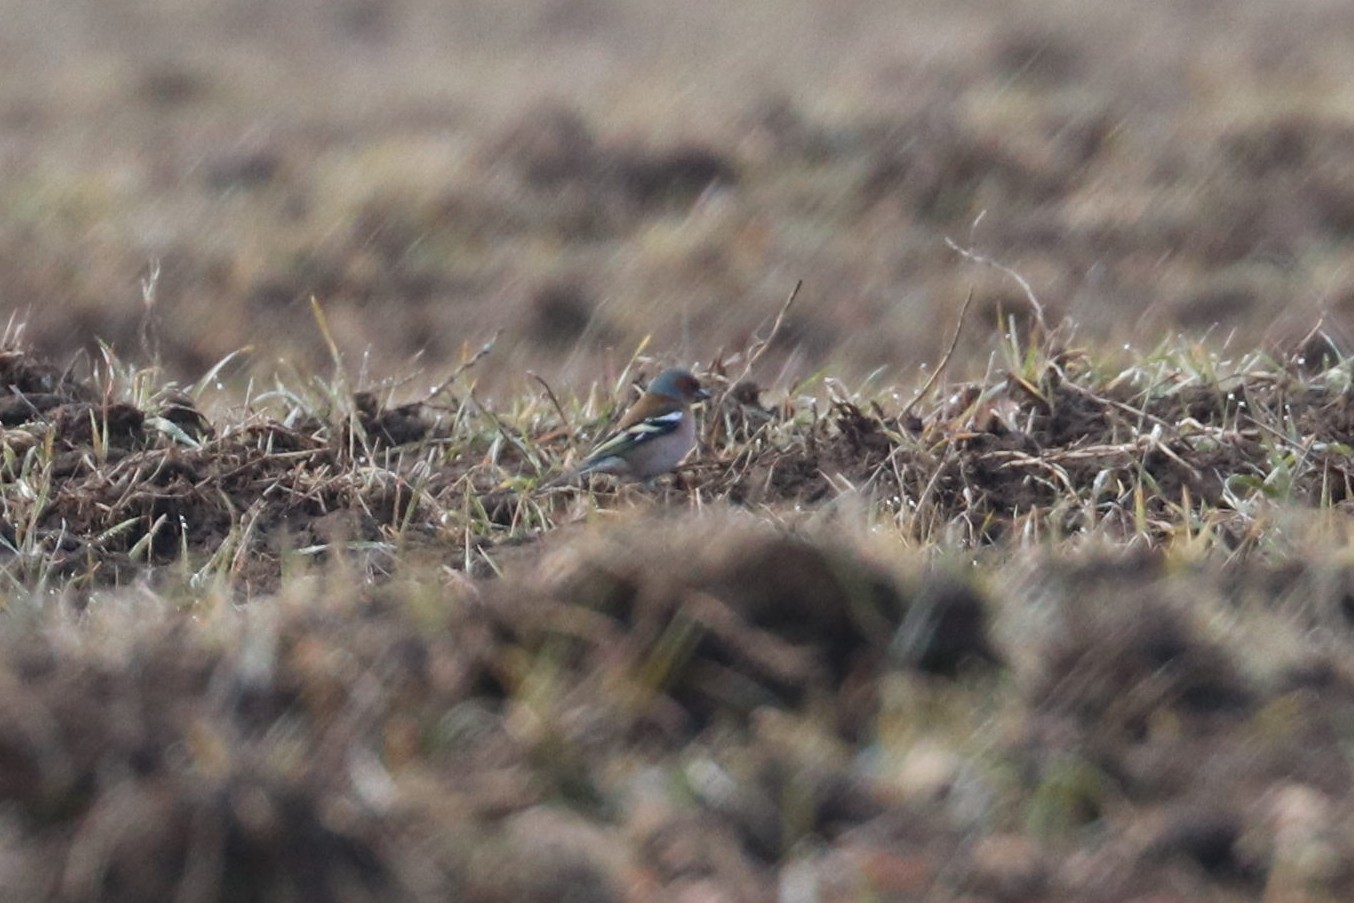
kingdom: Animalia
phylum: Chordata
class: Aves
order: Passeriformes
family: Fringillidae
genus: Fringilla
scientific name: Fringilla coelebs
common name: Common chaffinch
